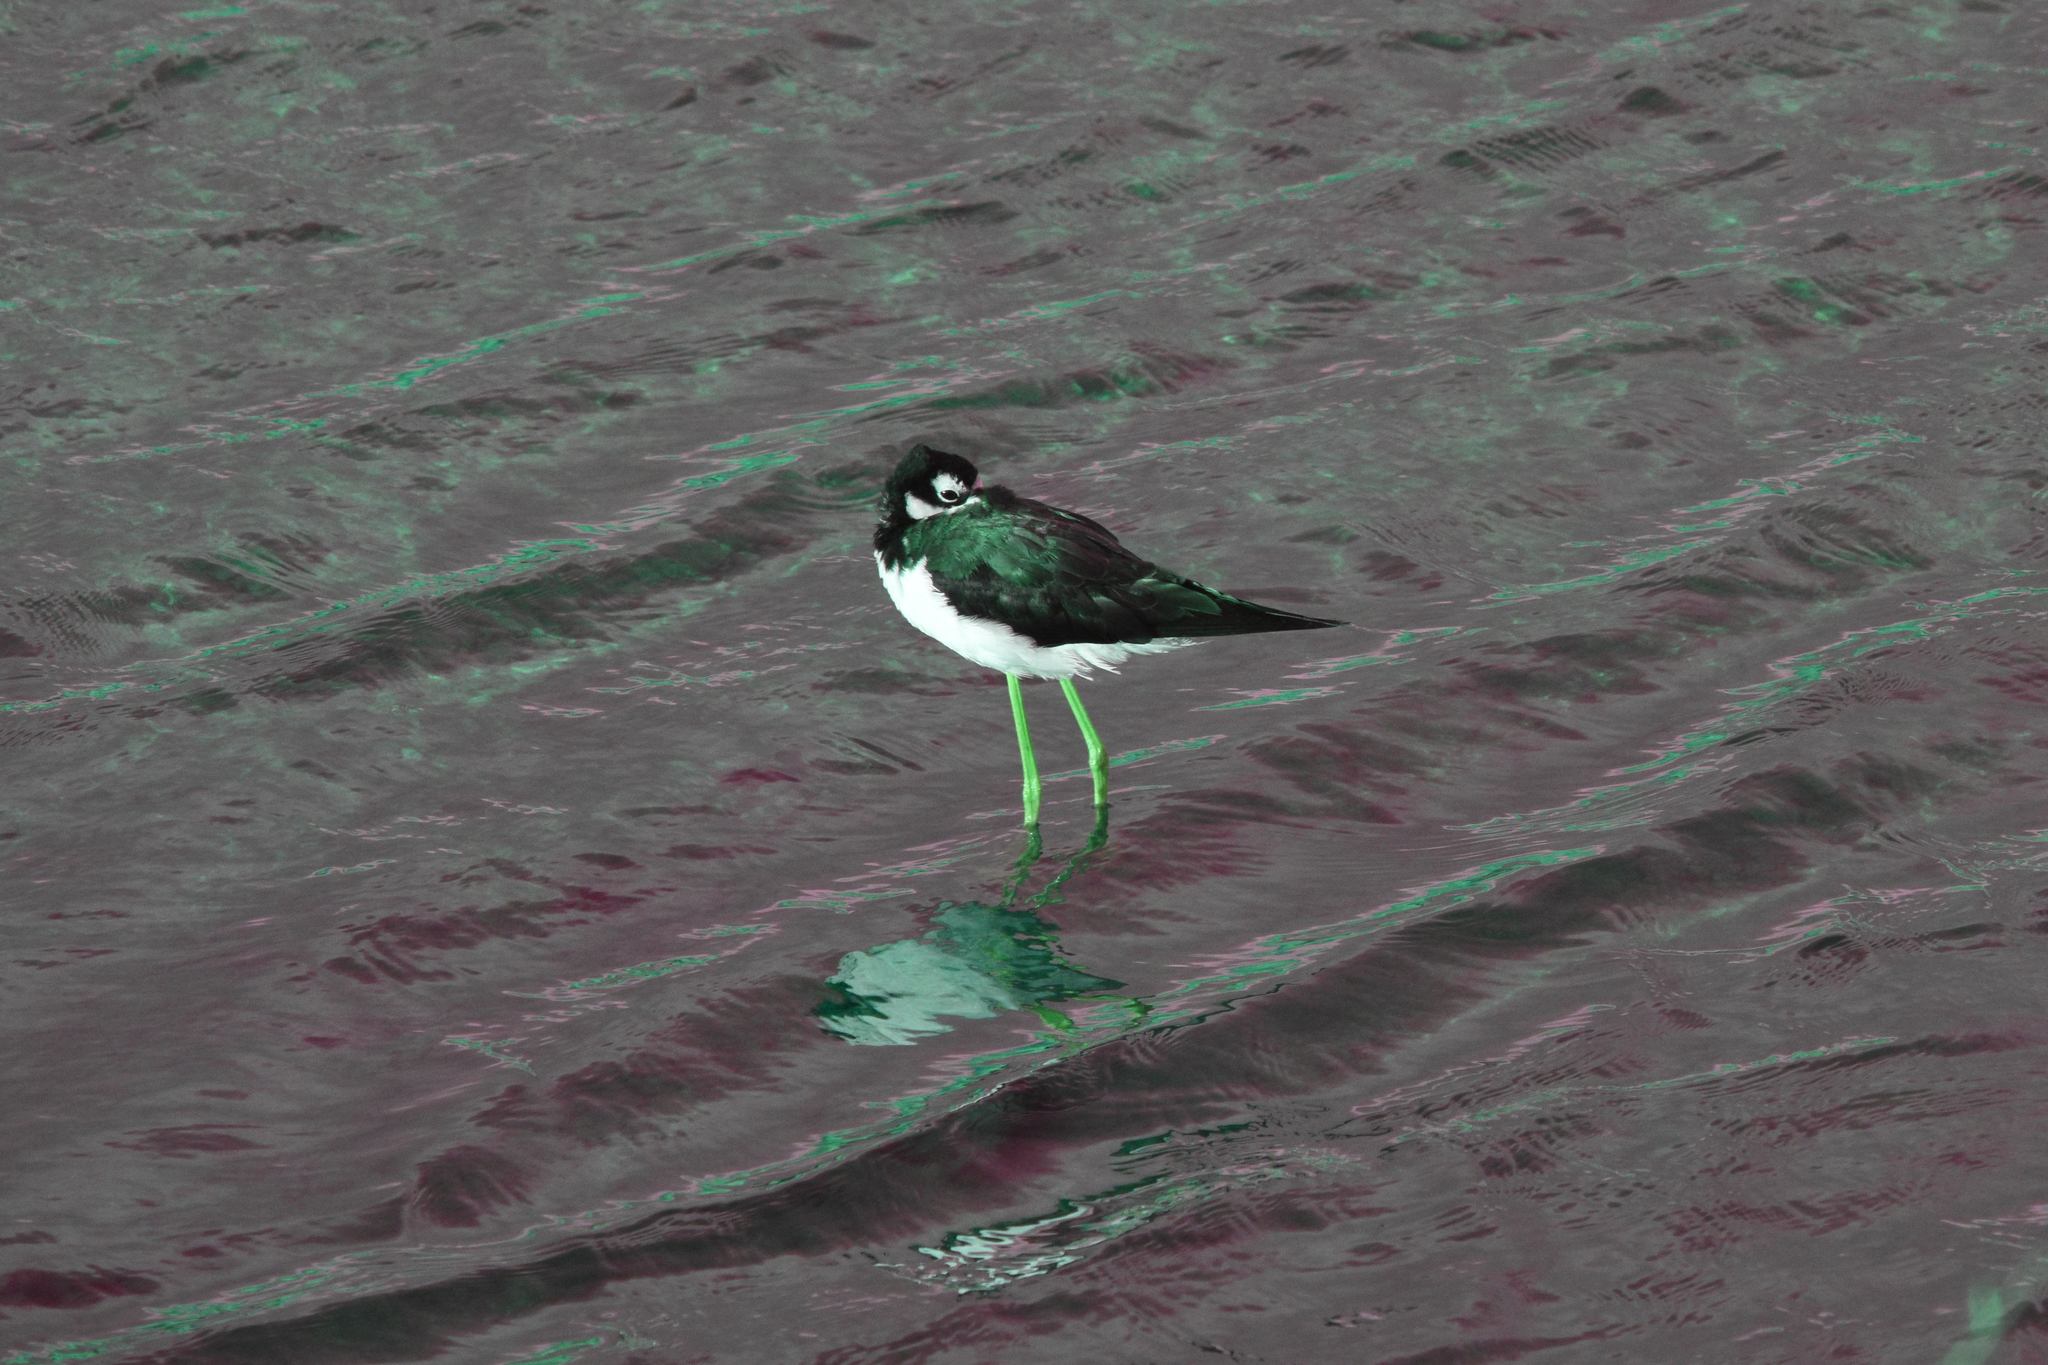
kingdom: Animalia
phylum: Chordata
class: Aves
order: Charadriiformes
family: Recurvirostridae
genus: Himantopus
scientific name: Himantopus mexicanus
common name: Black-necked stilt
